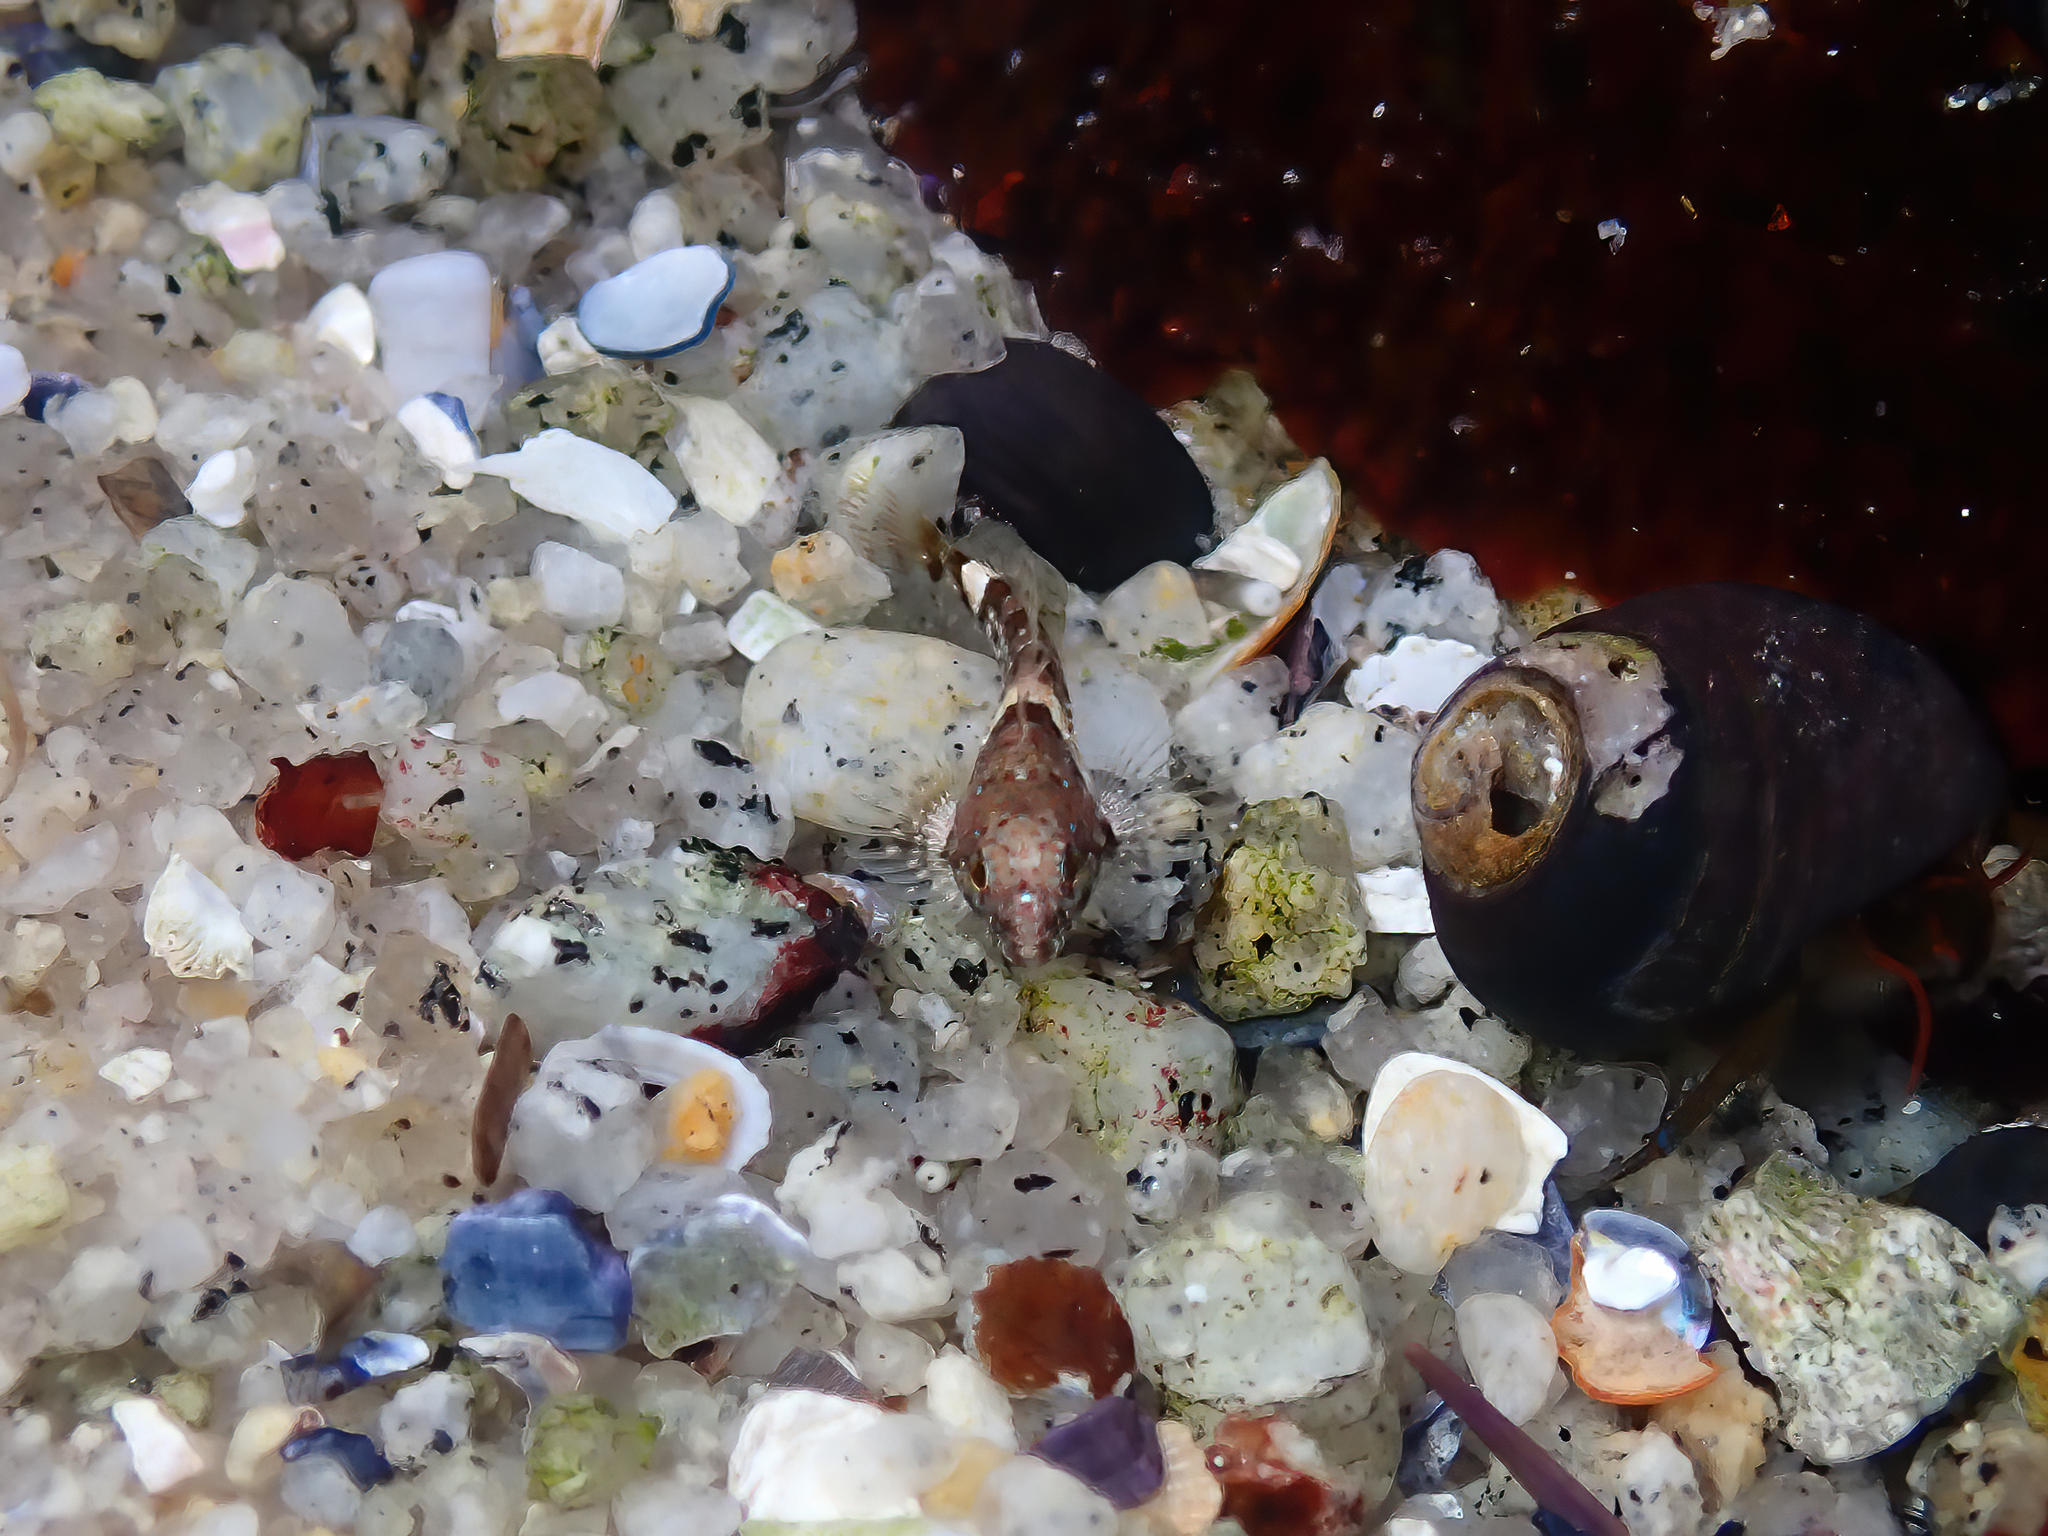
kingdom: Animalia
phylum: Chordata
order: Scorpaeniformes
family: Cottidae
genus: Clinocottus
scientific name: Clinocottus analis
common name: Woolly sculpin
